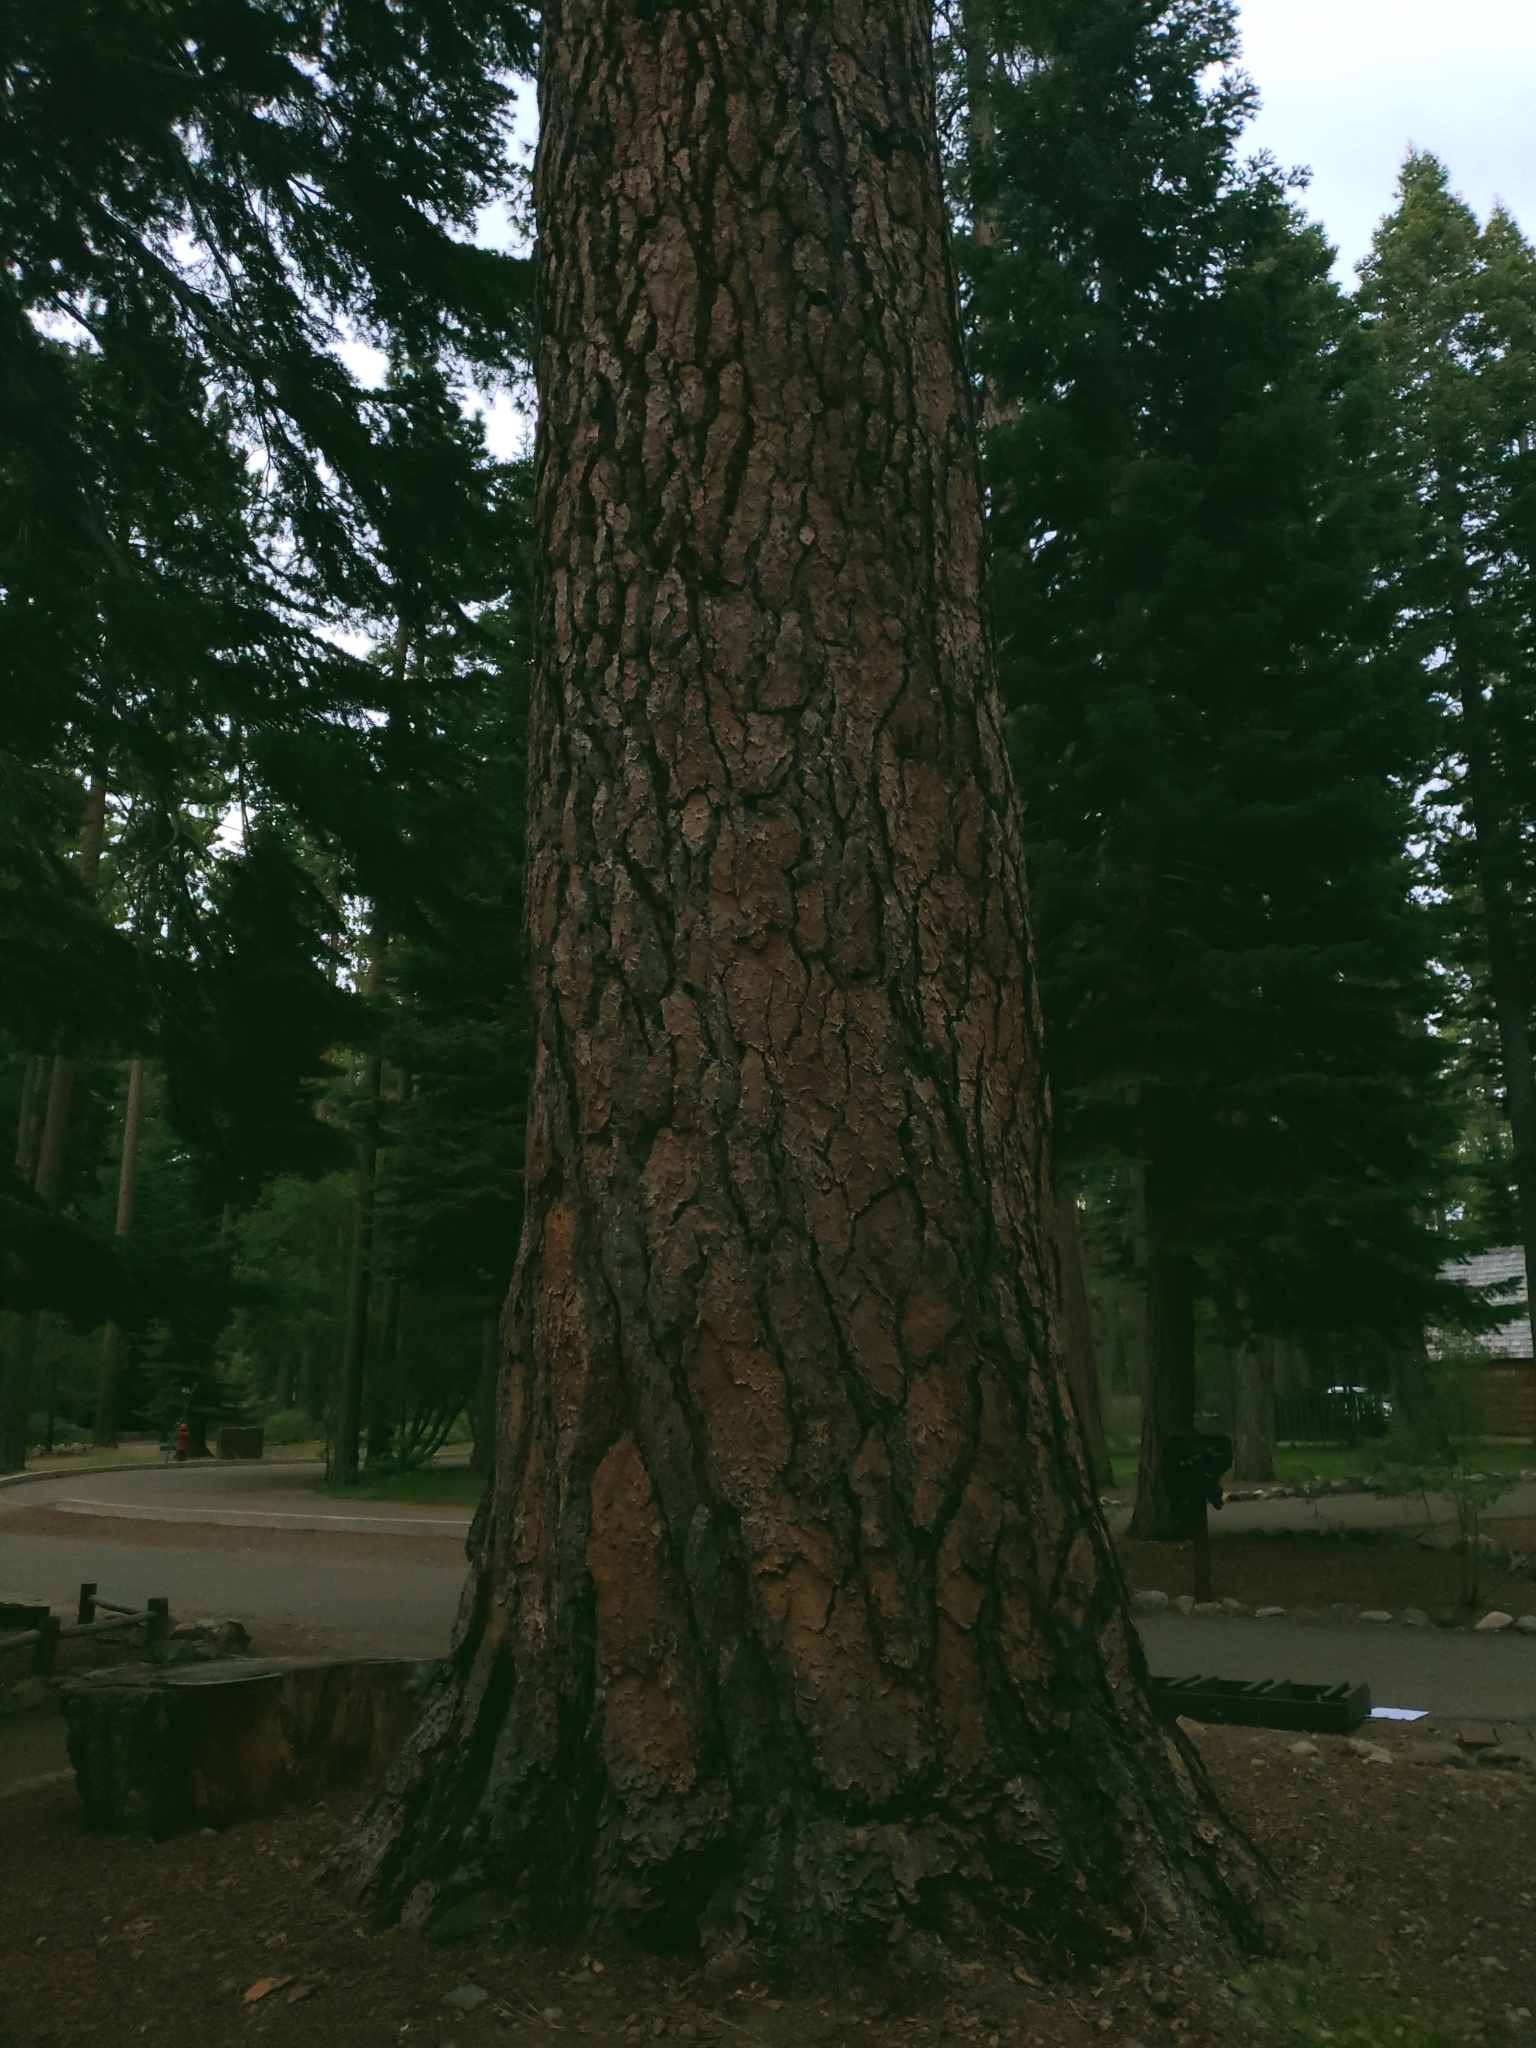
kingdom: Plantae
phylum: Tracheophyta
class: Pinopsida
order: Pinales
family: Pinaceae
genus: Pinus
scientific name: Pinus jeffreyi
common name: Jeffrey pine
